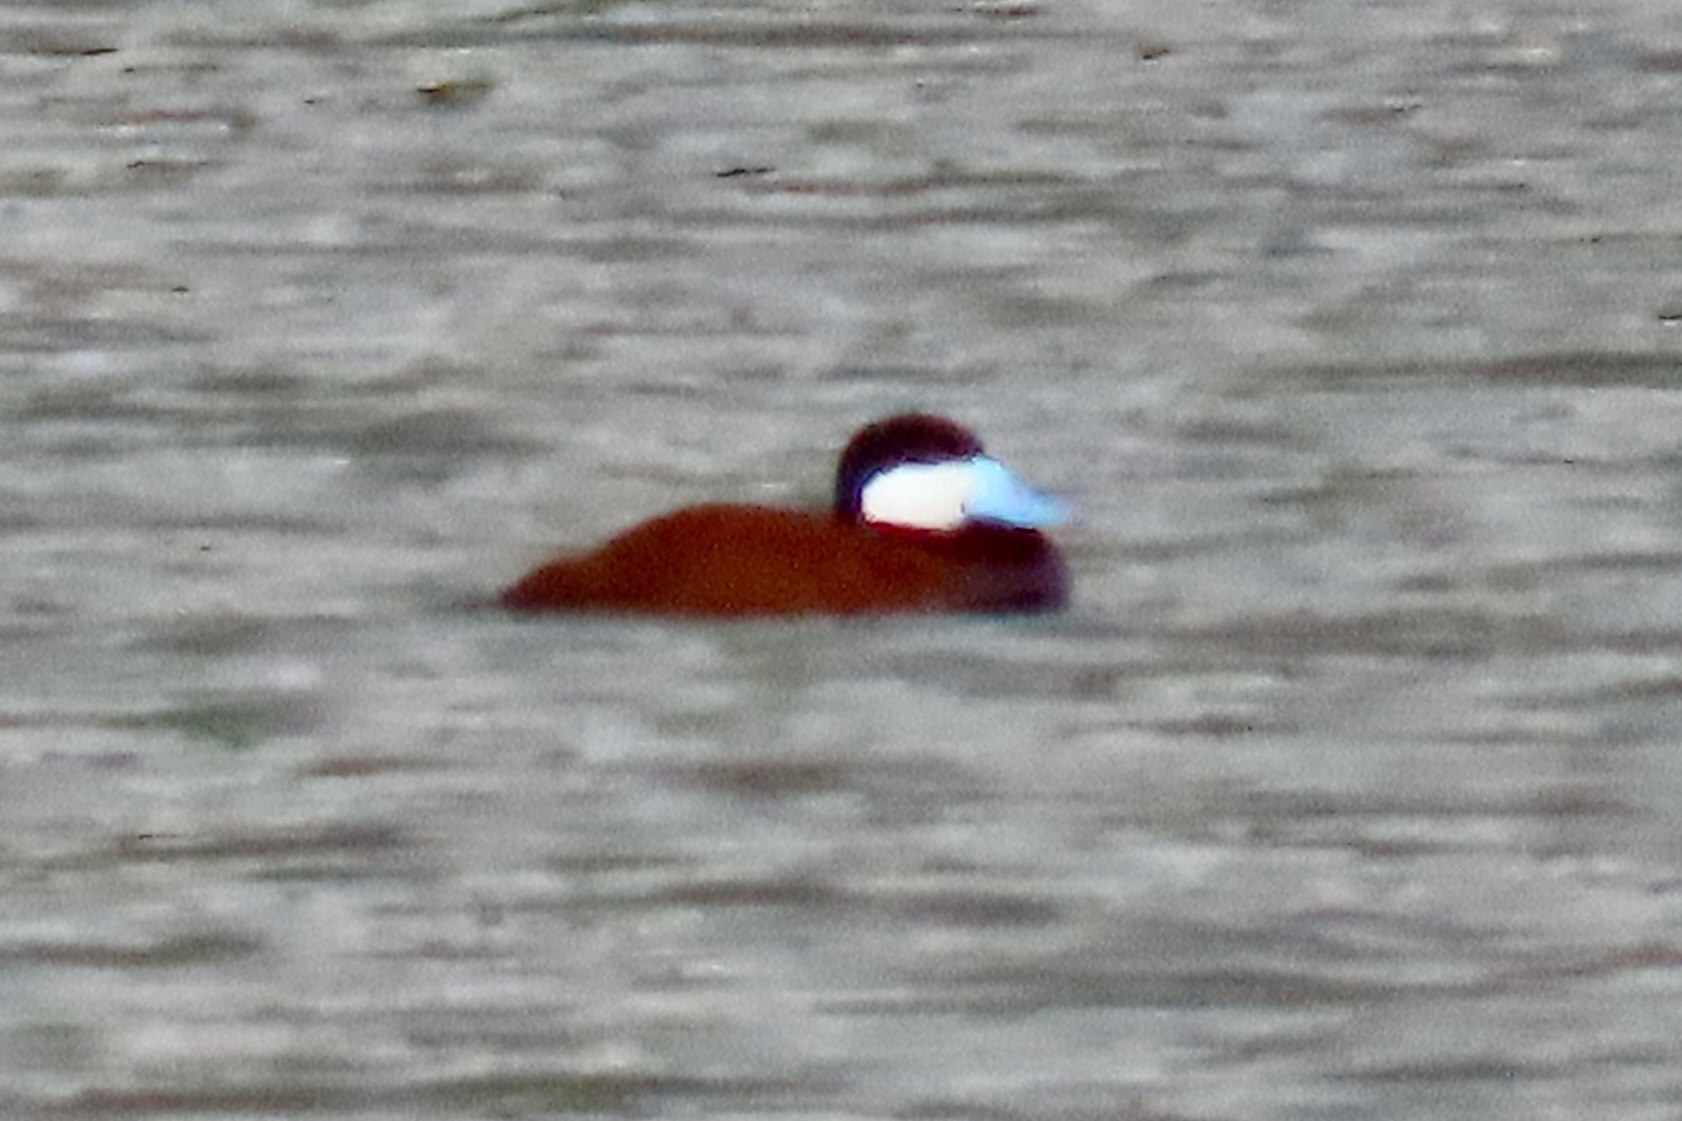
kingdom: Animalia
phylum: Chordata
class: Aves
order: Anseriformes
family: Anatidae
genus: Oxyura
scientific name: Oxyura jamaicensis
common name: Ruddy duck
